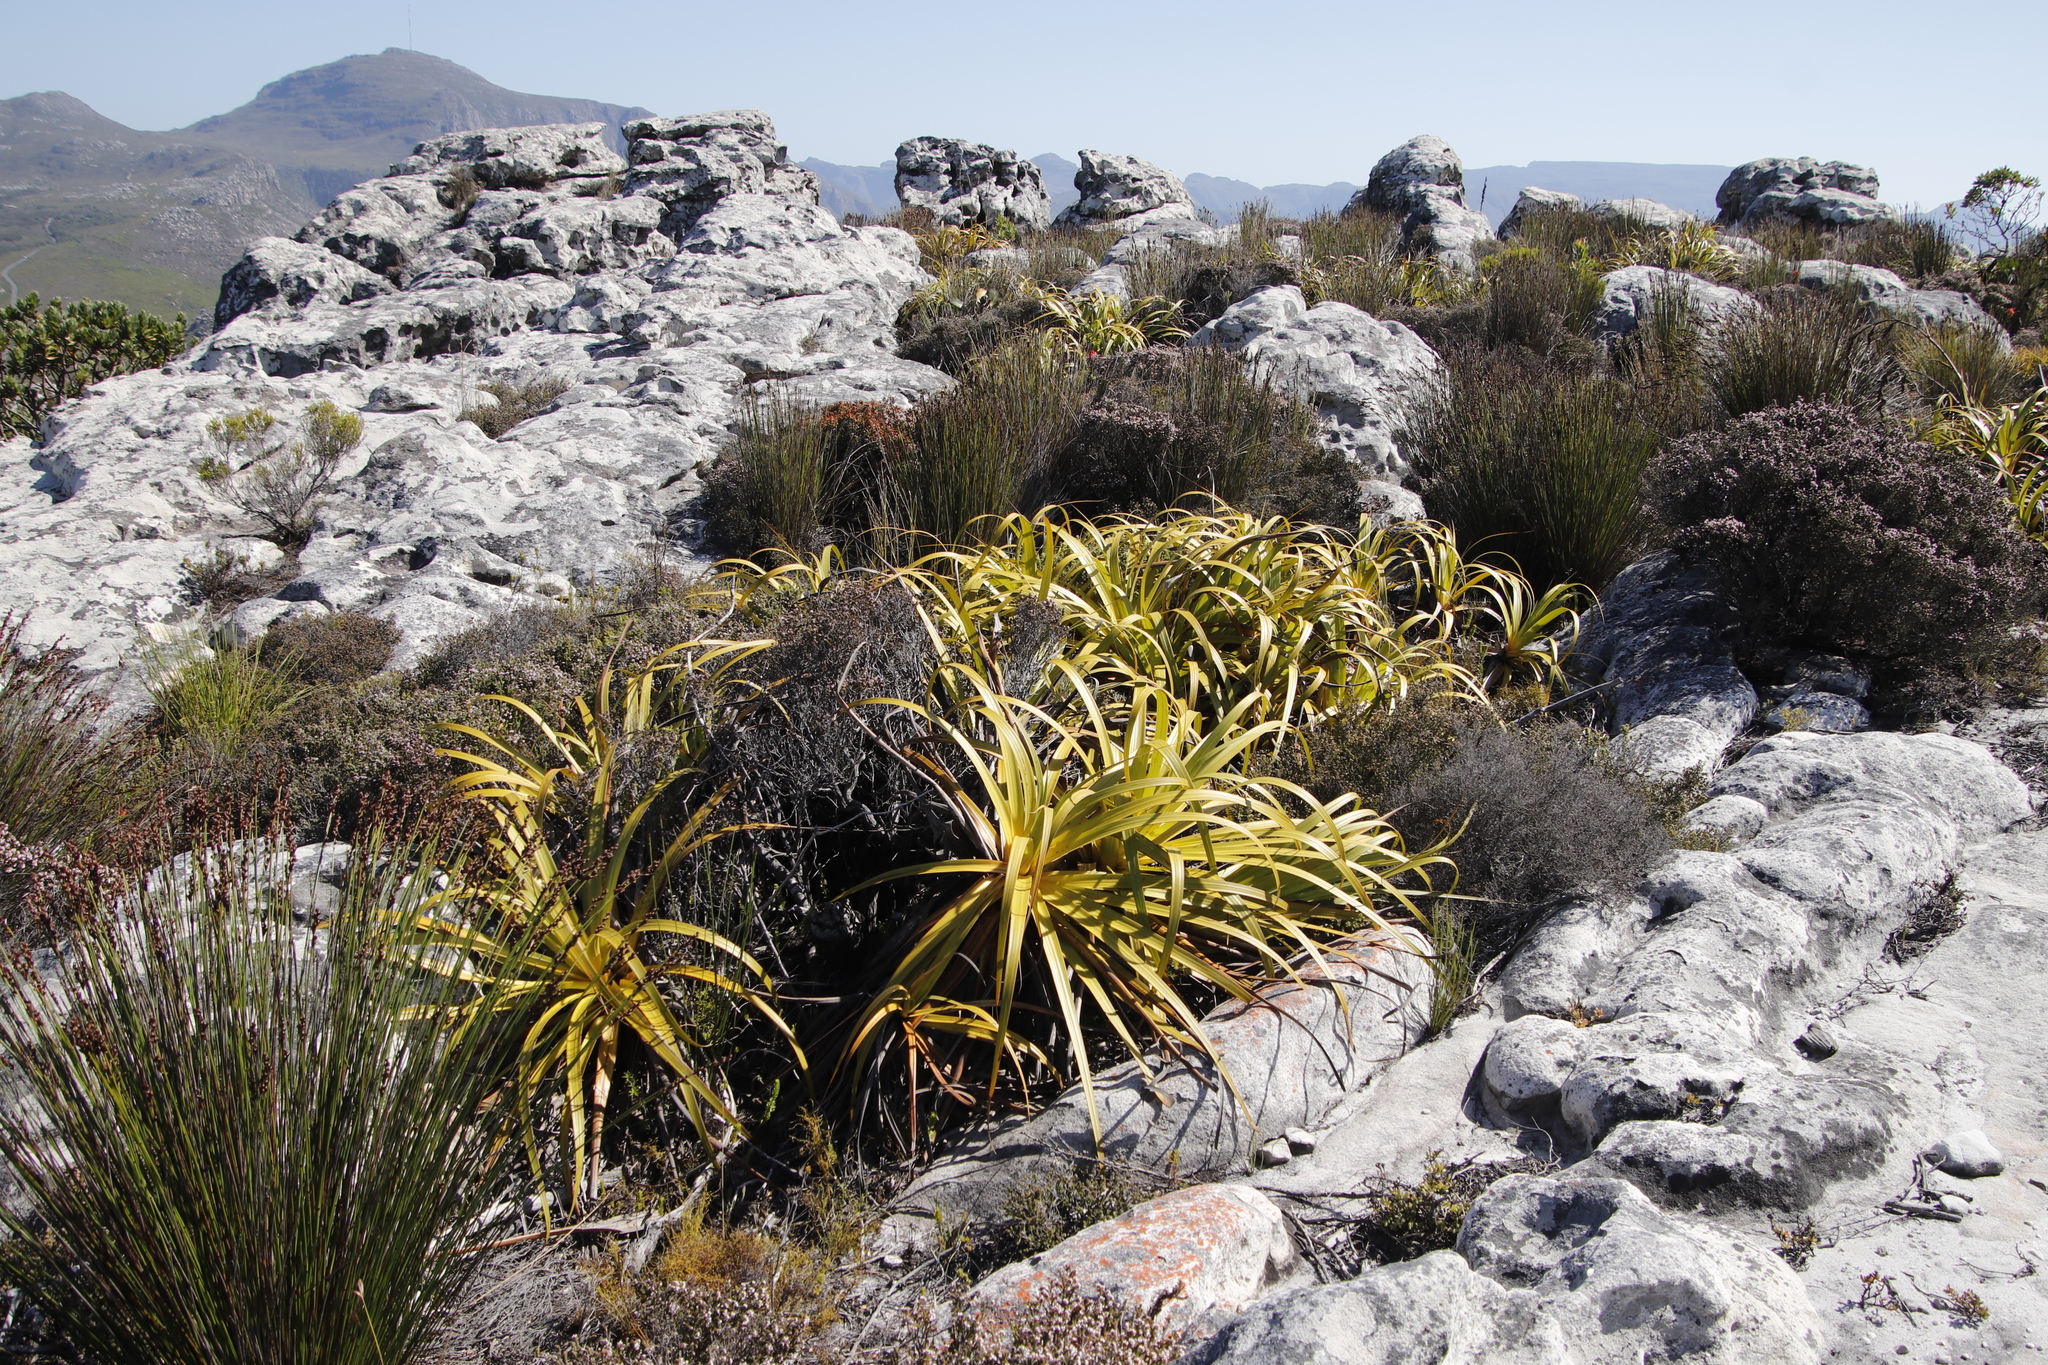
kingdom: Plantae
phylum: Tracheophyta
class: Liliopsida
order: Poales
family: Cyperaceae
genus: Tetraria
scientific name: Tetraria thermalis
